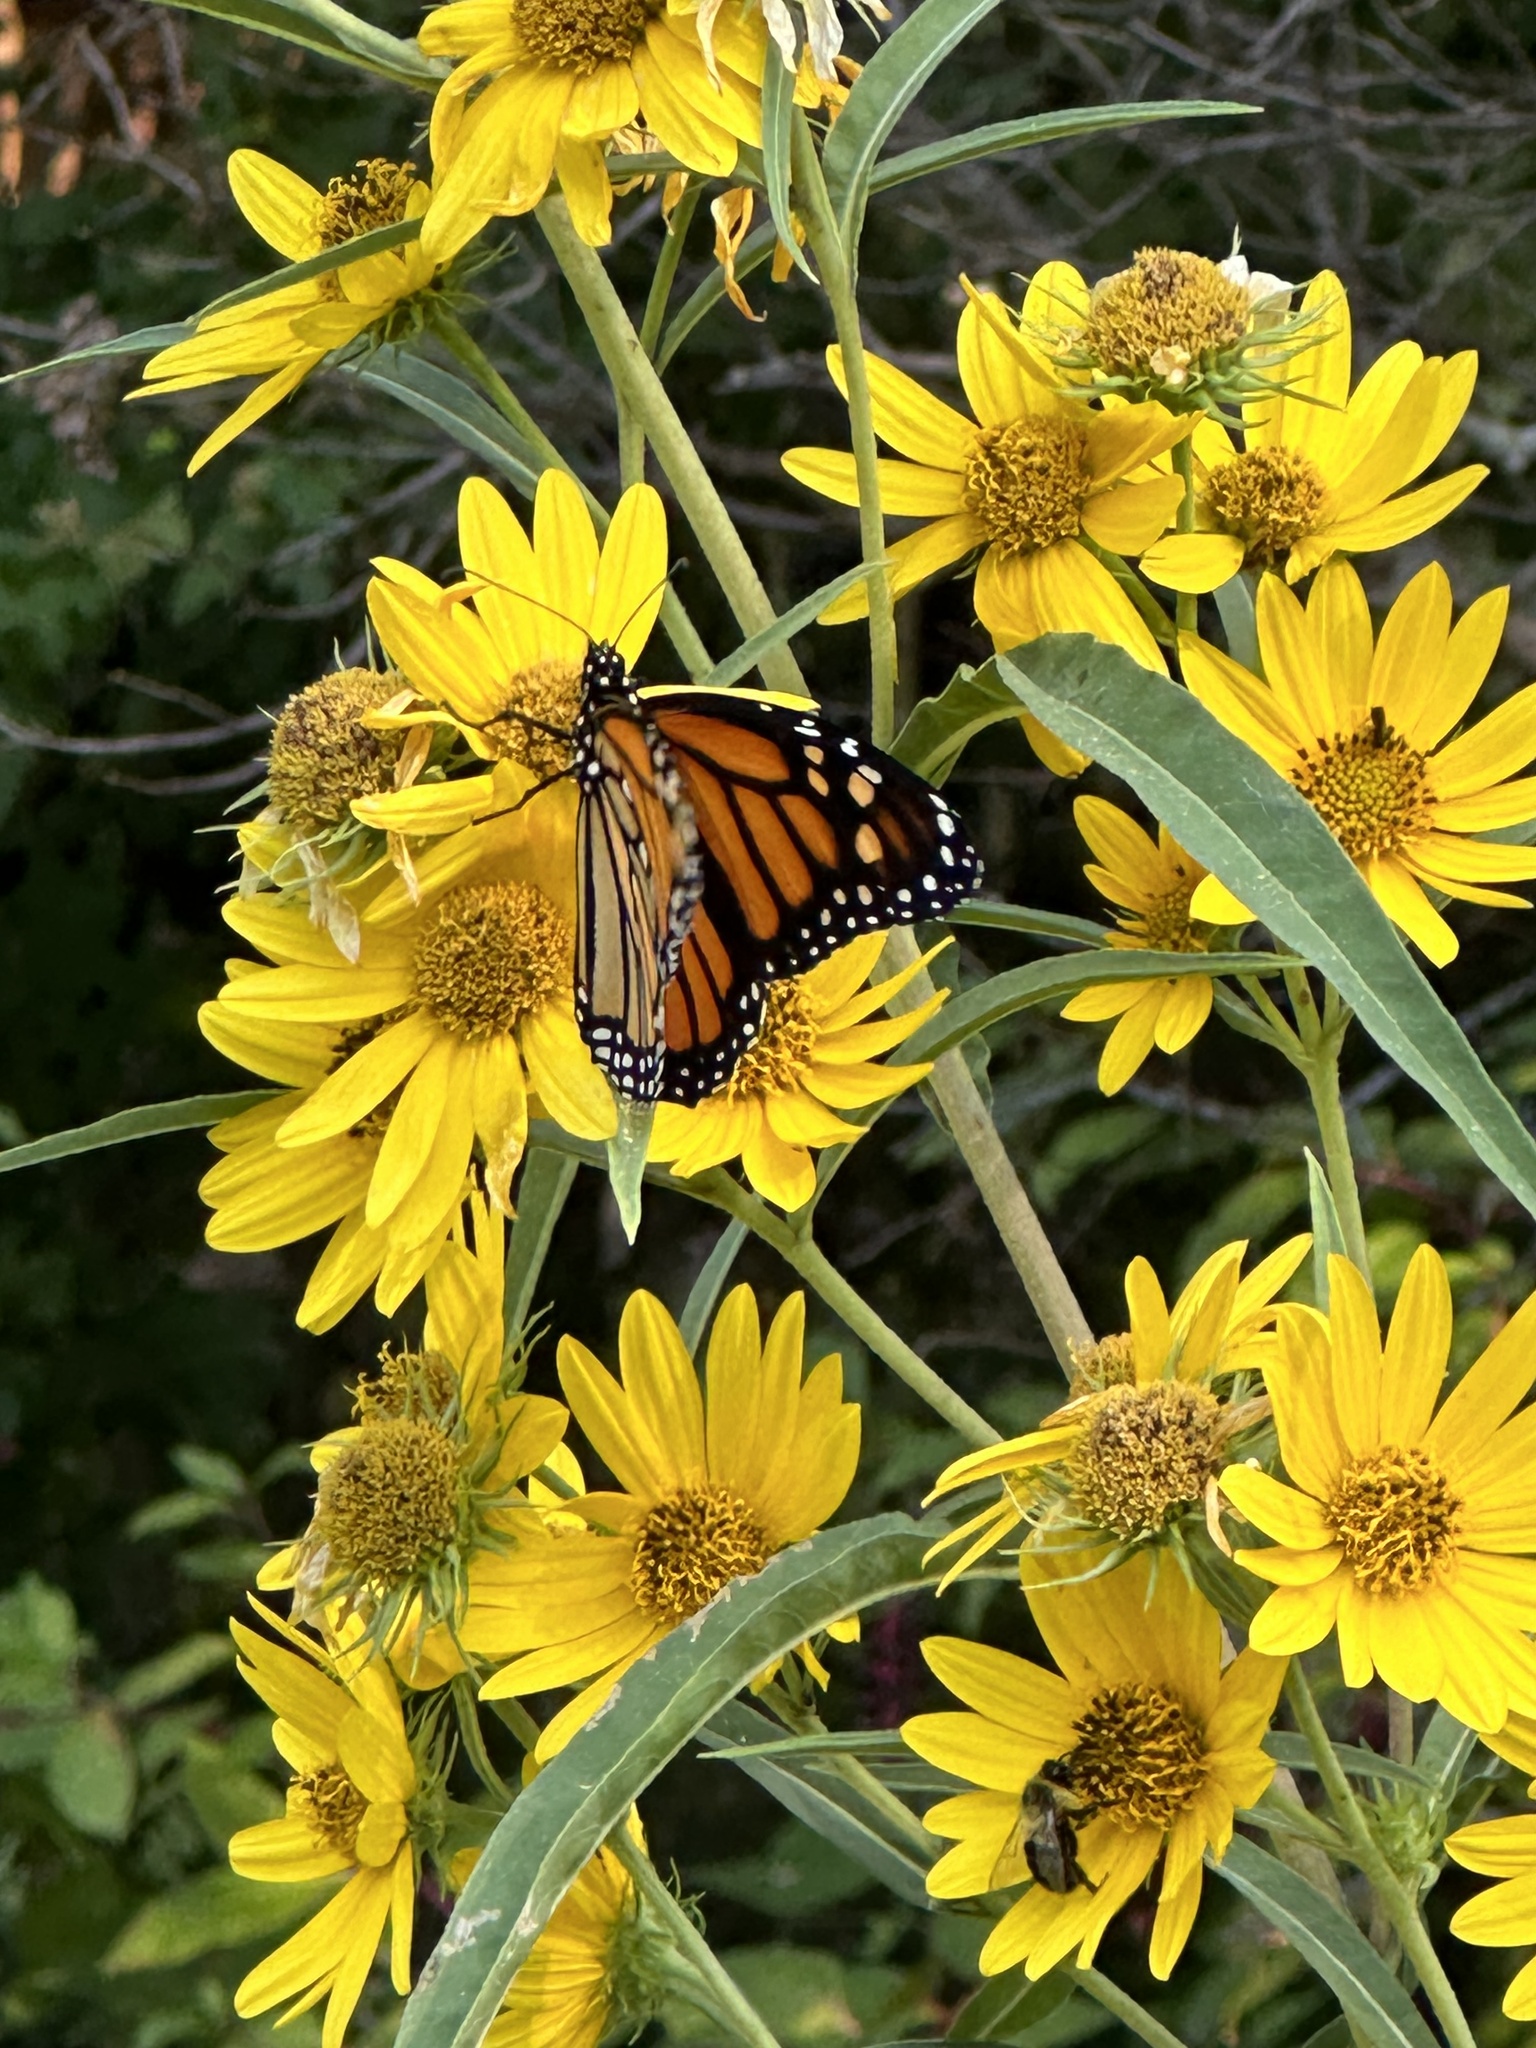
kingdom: Animalia
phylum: Arthropoda
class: Insecta
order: Lepidoptera
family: Nymphalidae
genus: Danaus
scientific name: Danaus plexippus
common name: Monarch
